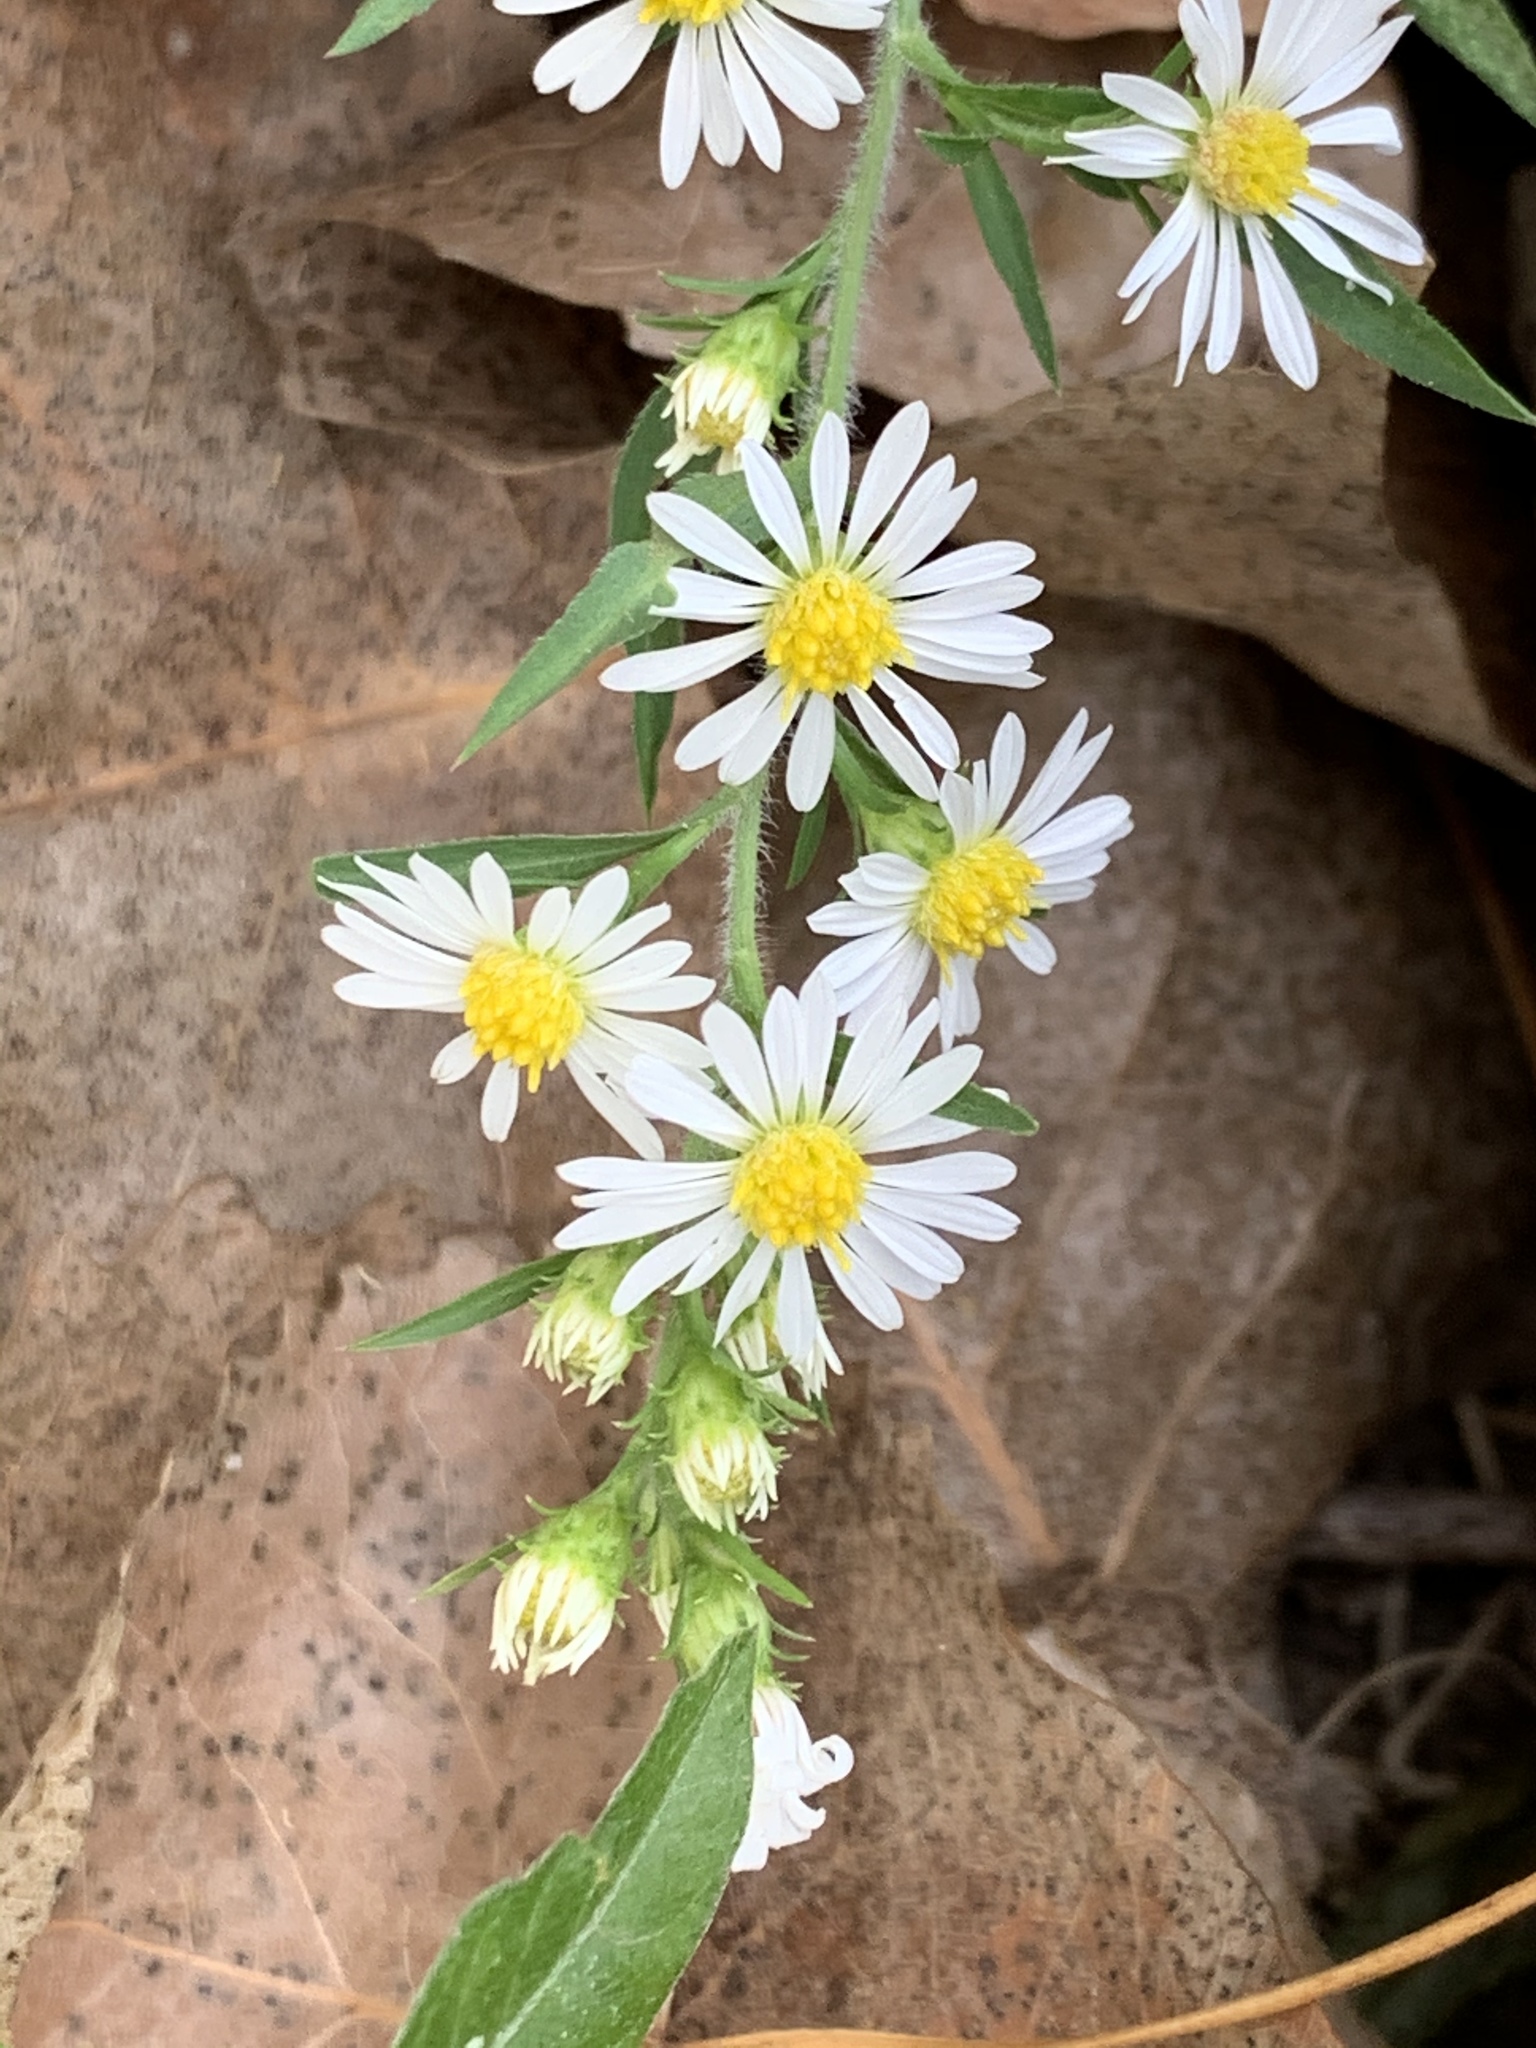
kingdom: Plantae
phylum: Tracheophyta
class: Magnoliopsida
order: Asterales
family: Asteraceae
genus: Symphyotrichum
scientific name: Symphyotrichum pilosum
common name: Awl aster
